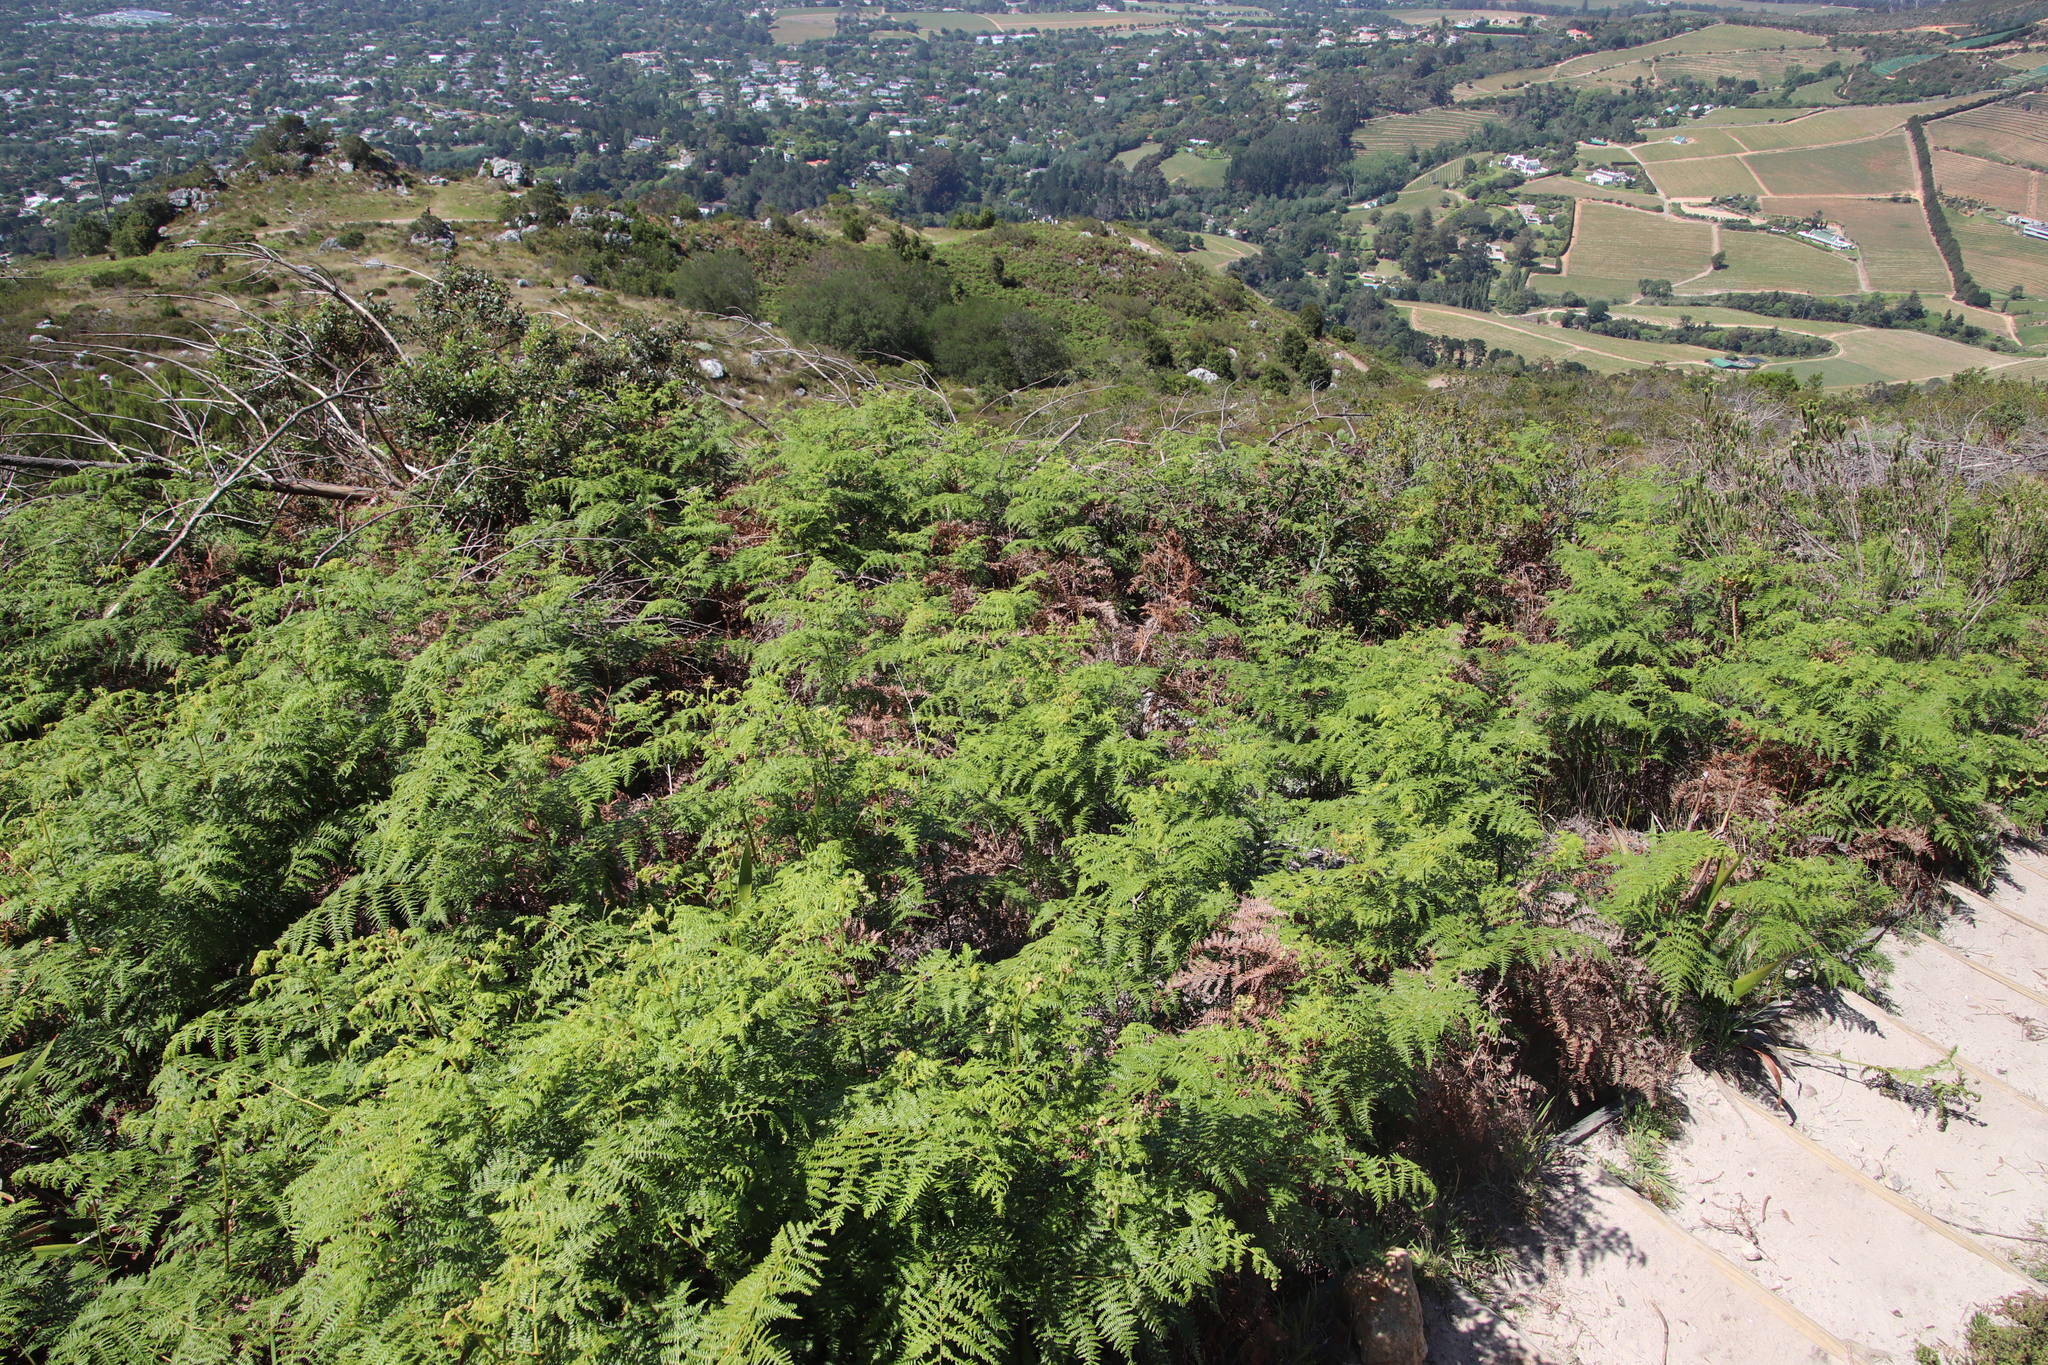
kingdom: Plantae
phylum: Tracheophyta
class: Polypodiopsida
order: Polypodiales
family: Dennstaedtiaceae
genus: Pteridium
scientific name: Pteridium aquilinum
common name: Bracken
